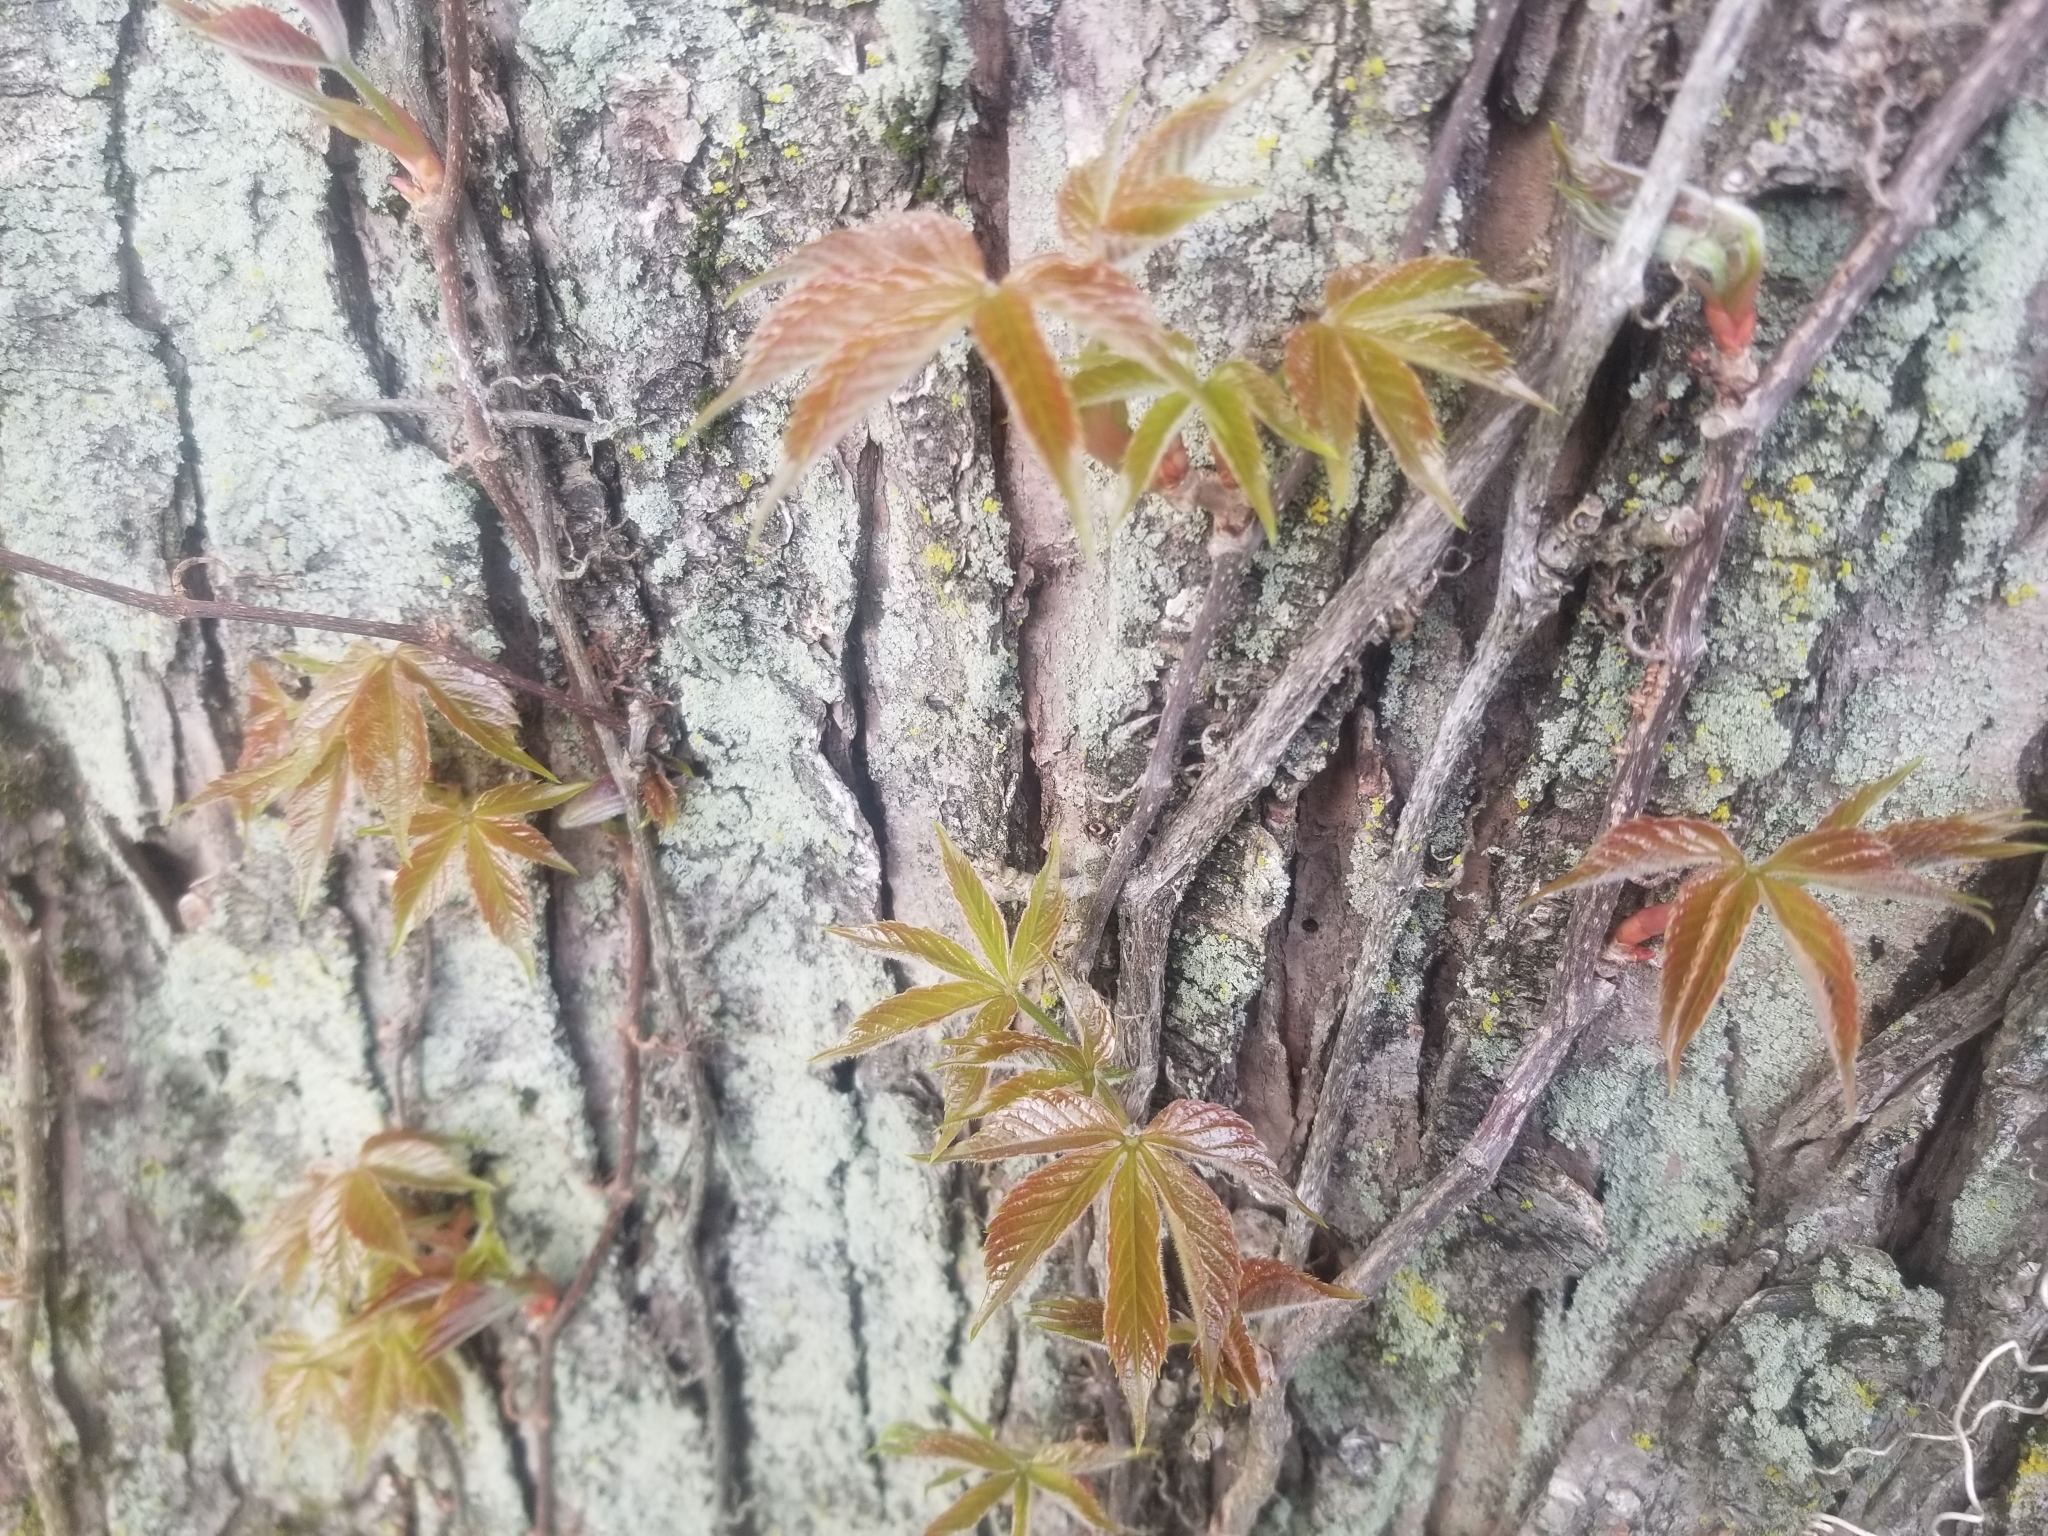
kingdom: Plantae
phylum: Tracheophyta
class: Magnoliopsida
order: Vitales
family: Vitaceae
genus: Parthenocissus
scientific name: Parthenocissus quinquefolia
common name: Virginia-creeper
